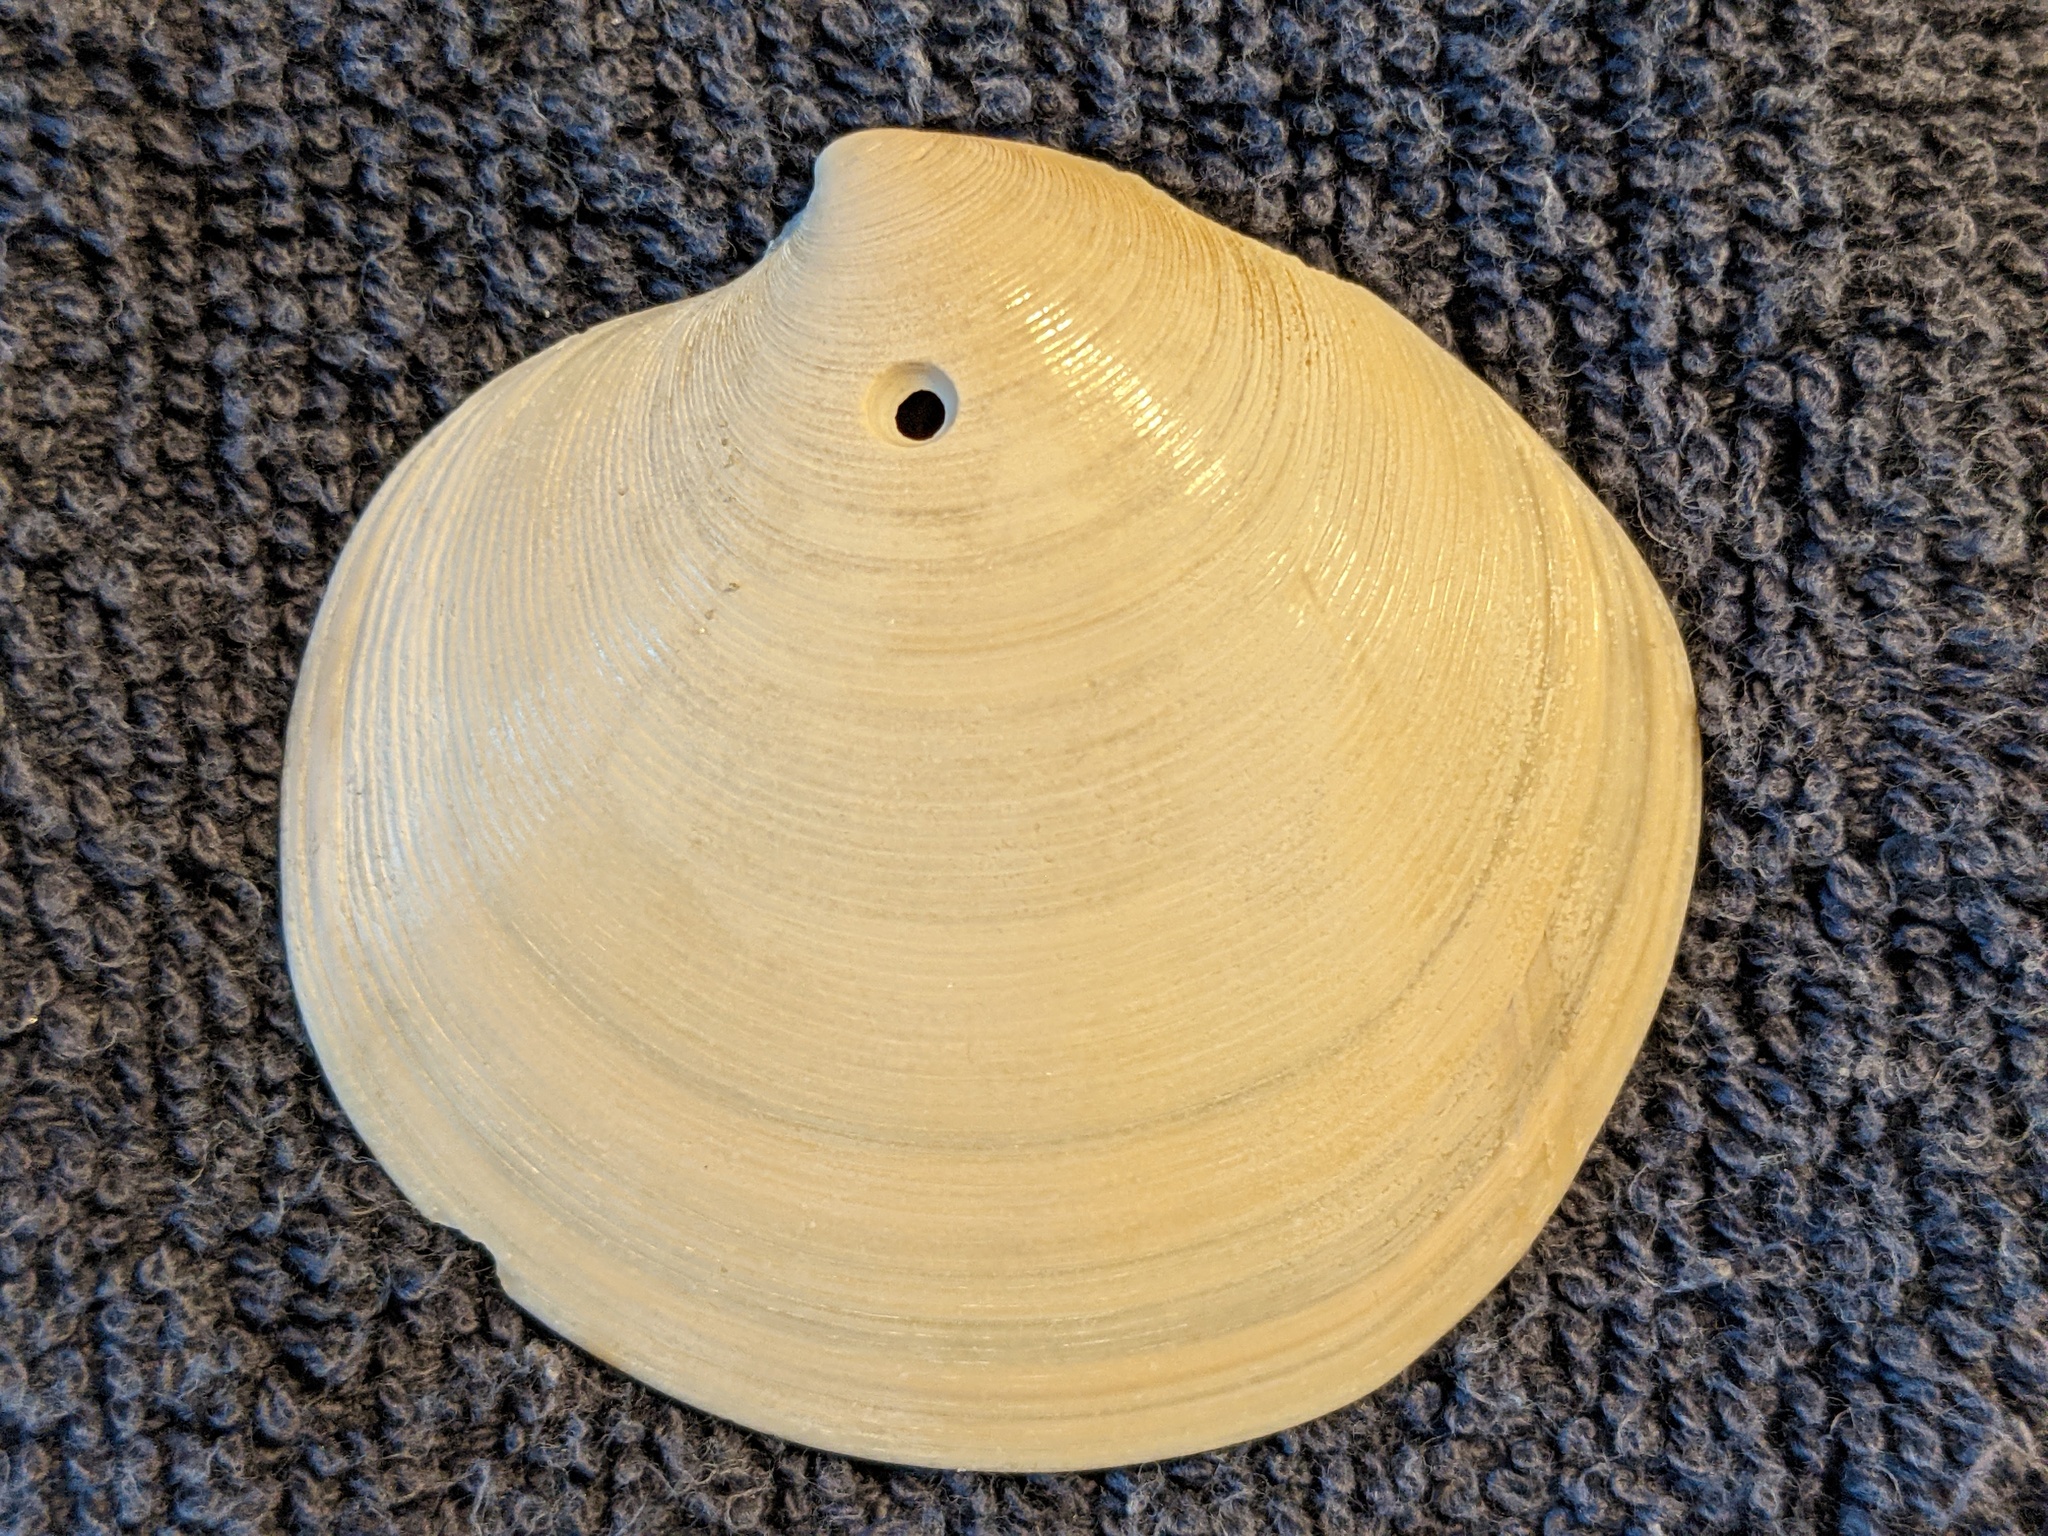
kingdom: Animalia
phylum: Mollusca
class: Bivalvia
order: Venerida
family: Veneridae
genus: Dosinia
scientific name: Dosinia discus
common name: Disk dosinia
